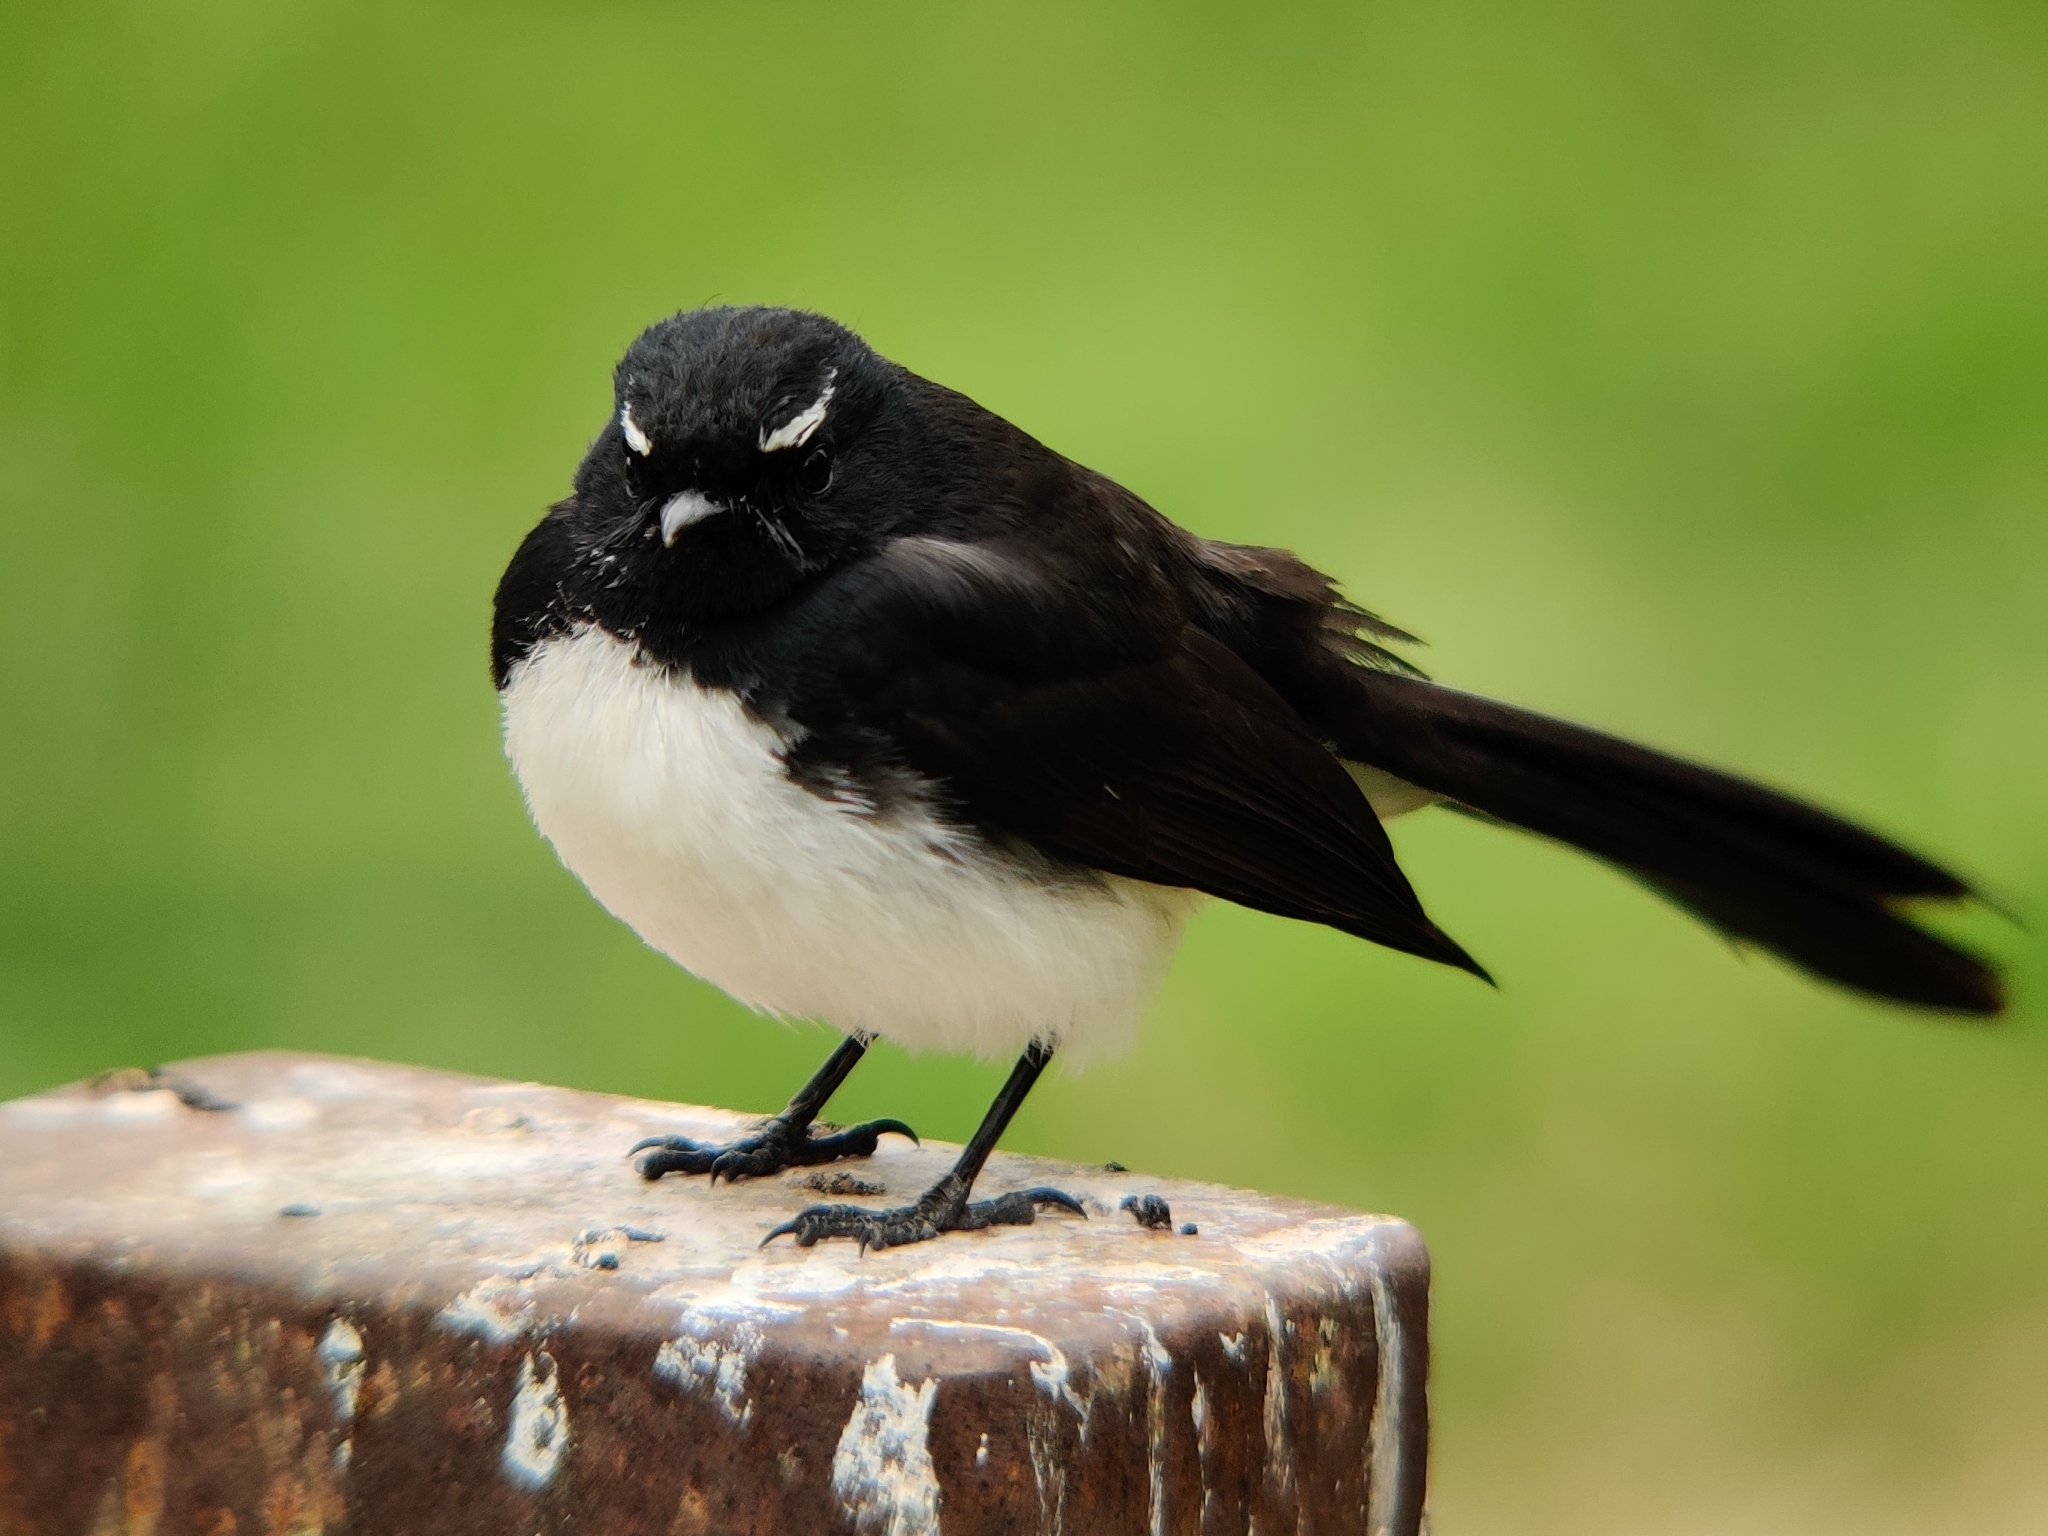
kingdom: Animalia
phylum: Chordata
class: Aves
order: Passeriformes
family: Rhipiduridae
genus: Rhipidura
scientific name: Rhipidura leucophrys
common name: Willie wagtail
